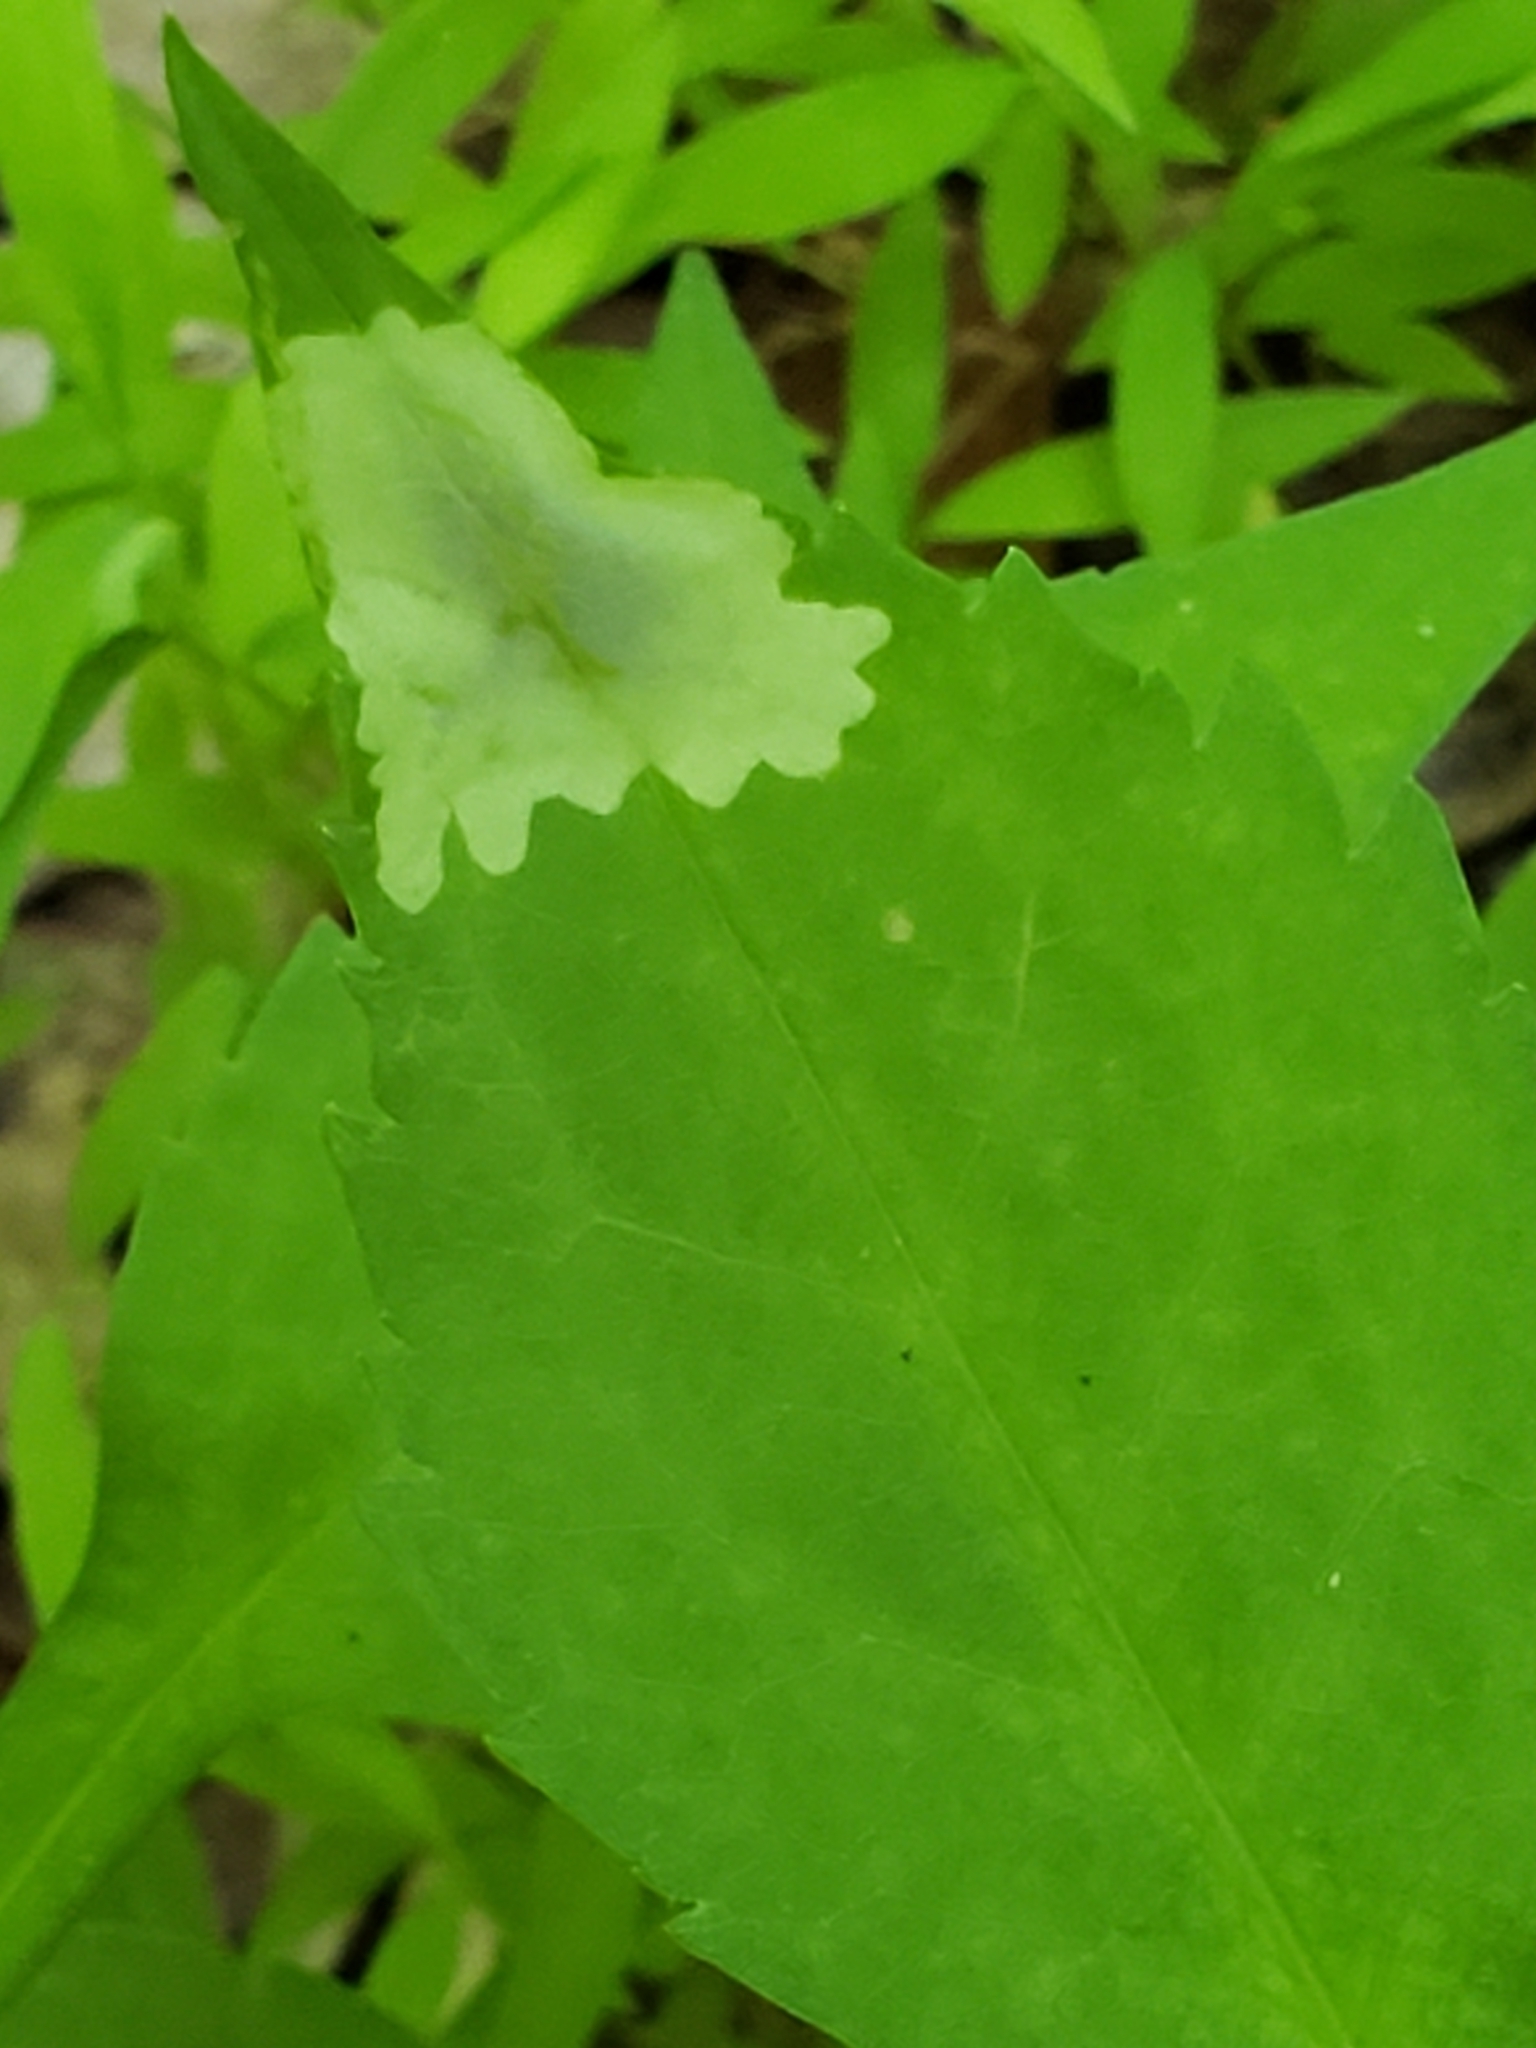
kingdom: Animalia
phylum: Arthropoda
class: Insecta
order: Diptera
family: Agromyzidae
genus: Calycomyza
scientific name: Calycomyza promissa
